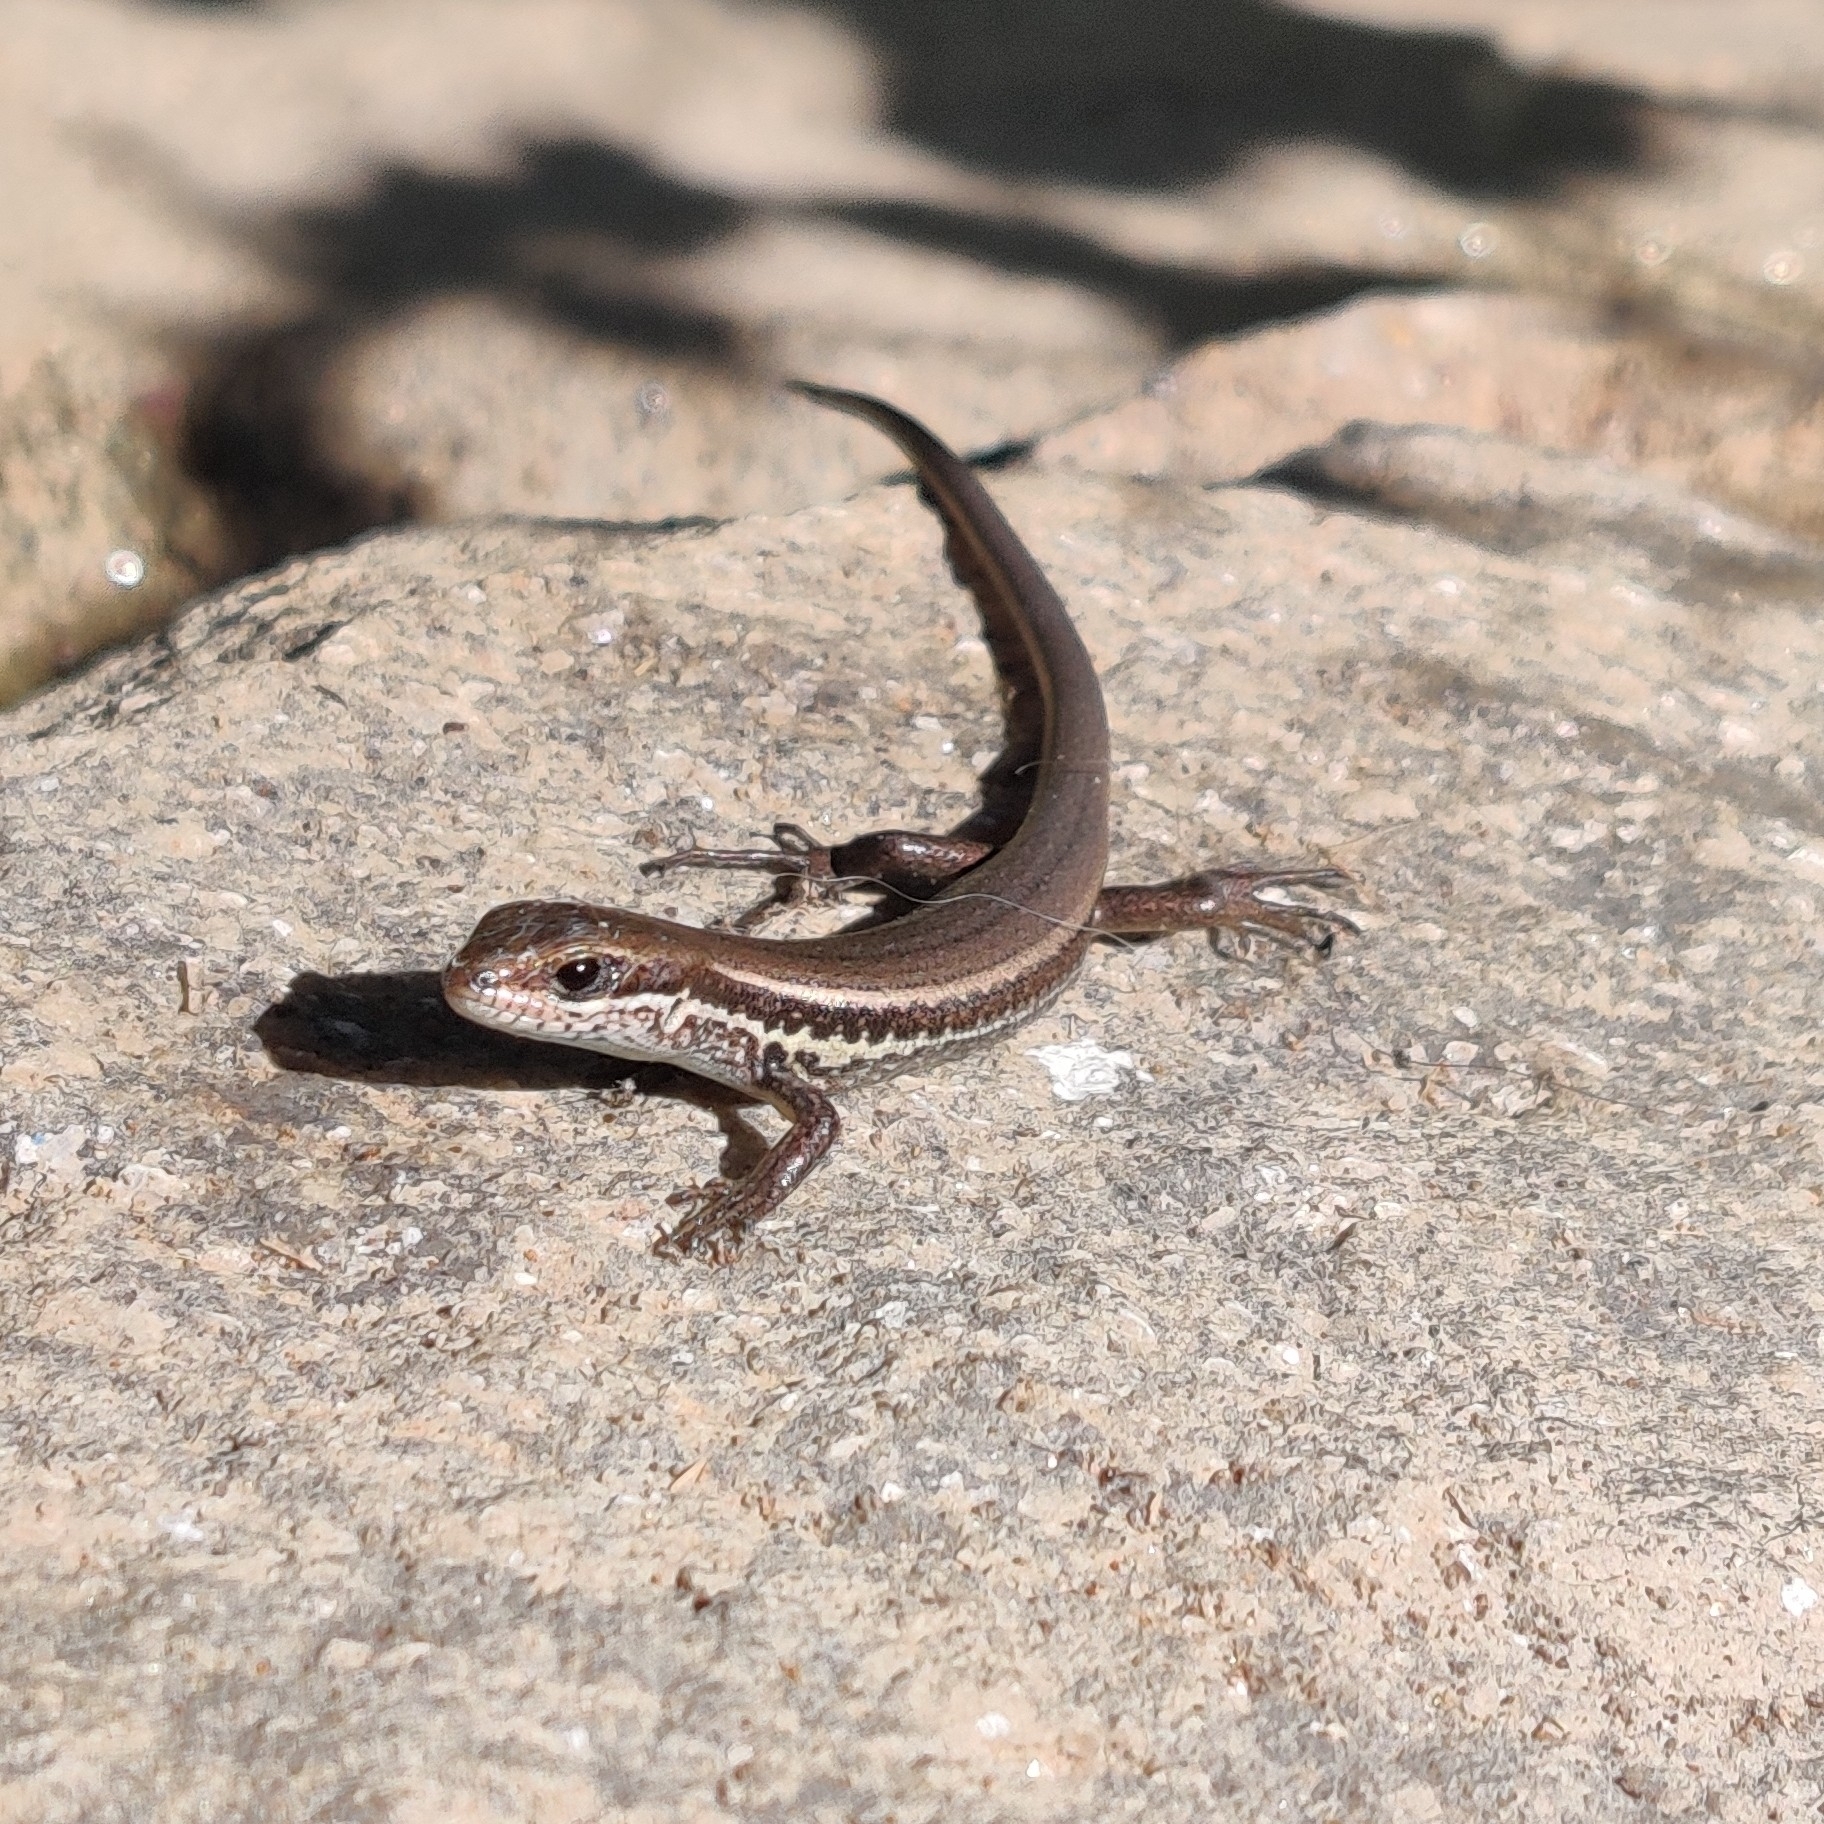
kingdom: Animalia
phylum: Chordata
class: Squamata
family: Scincidae
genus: Asymblepharus
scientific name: Asymblepharus himalayanus
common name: Himalaya ground skink
